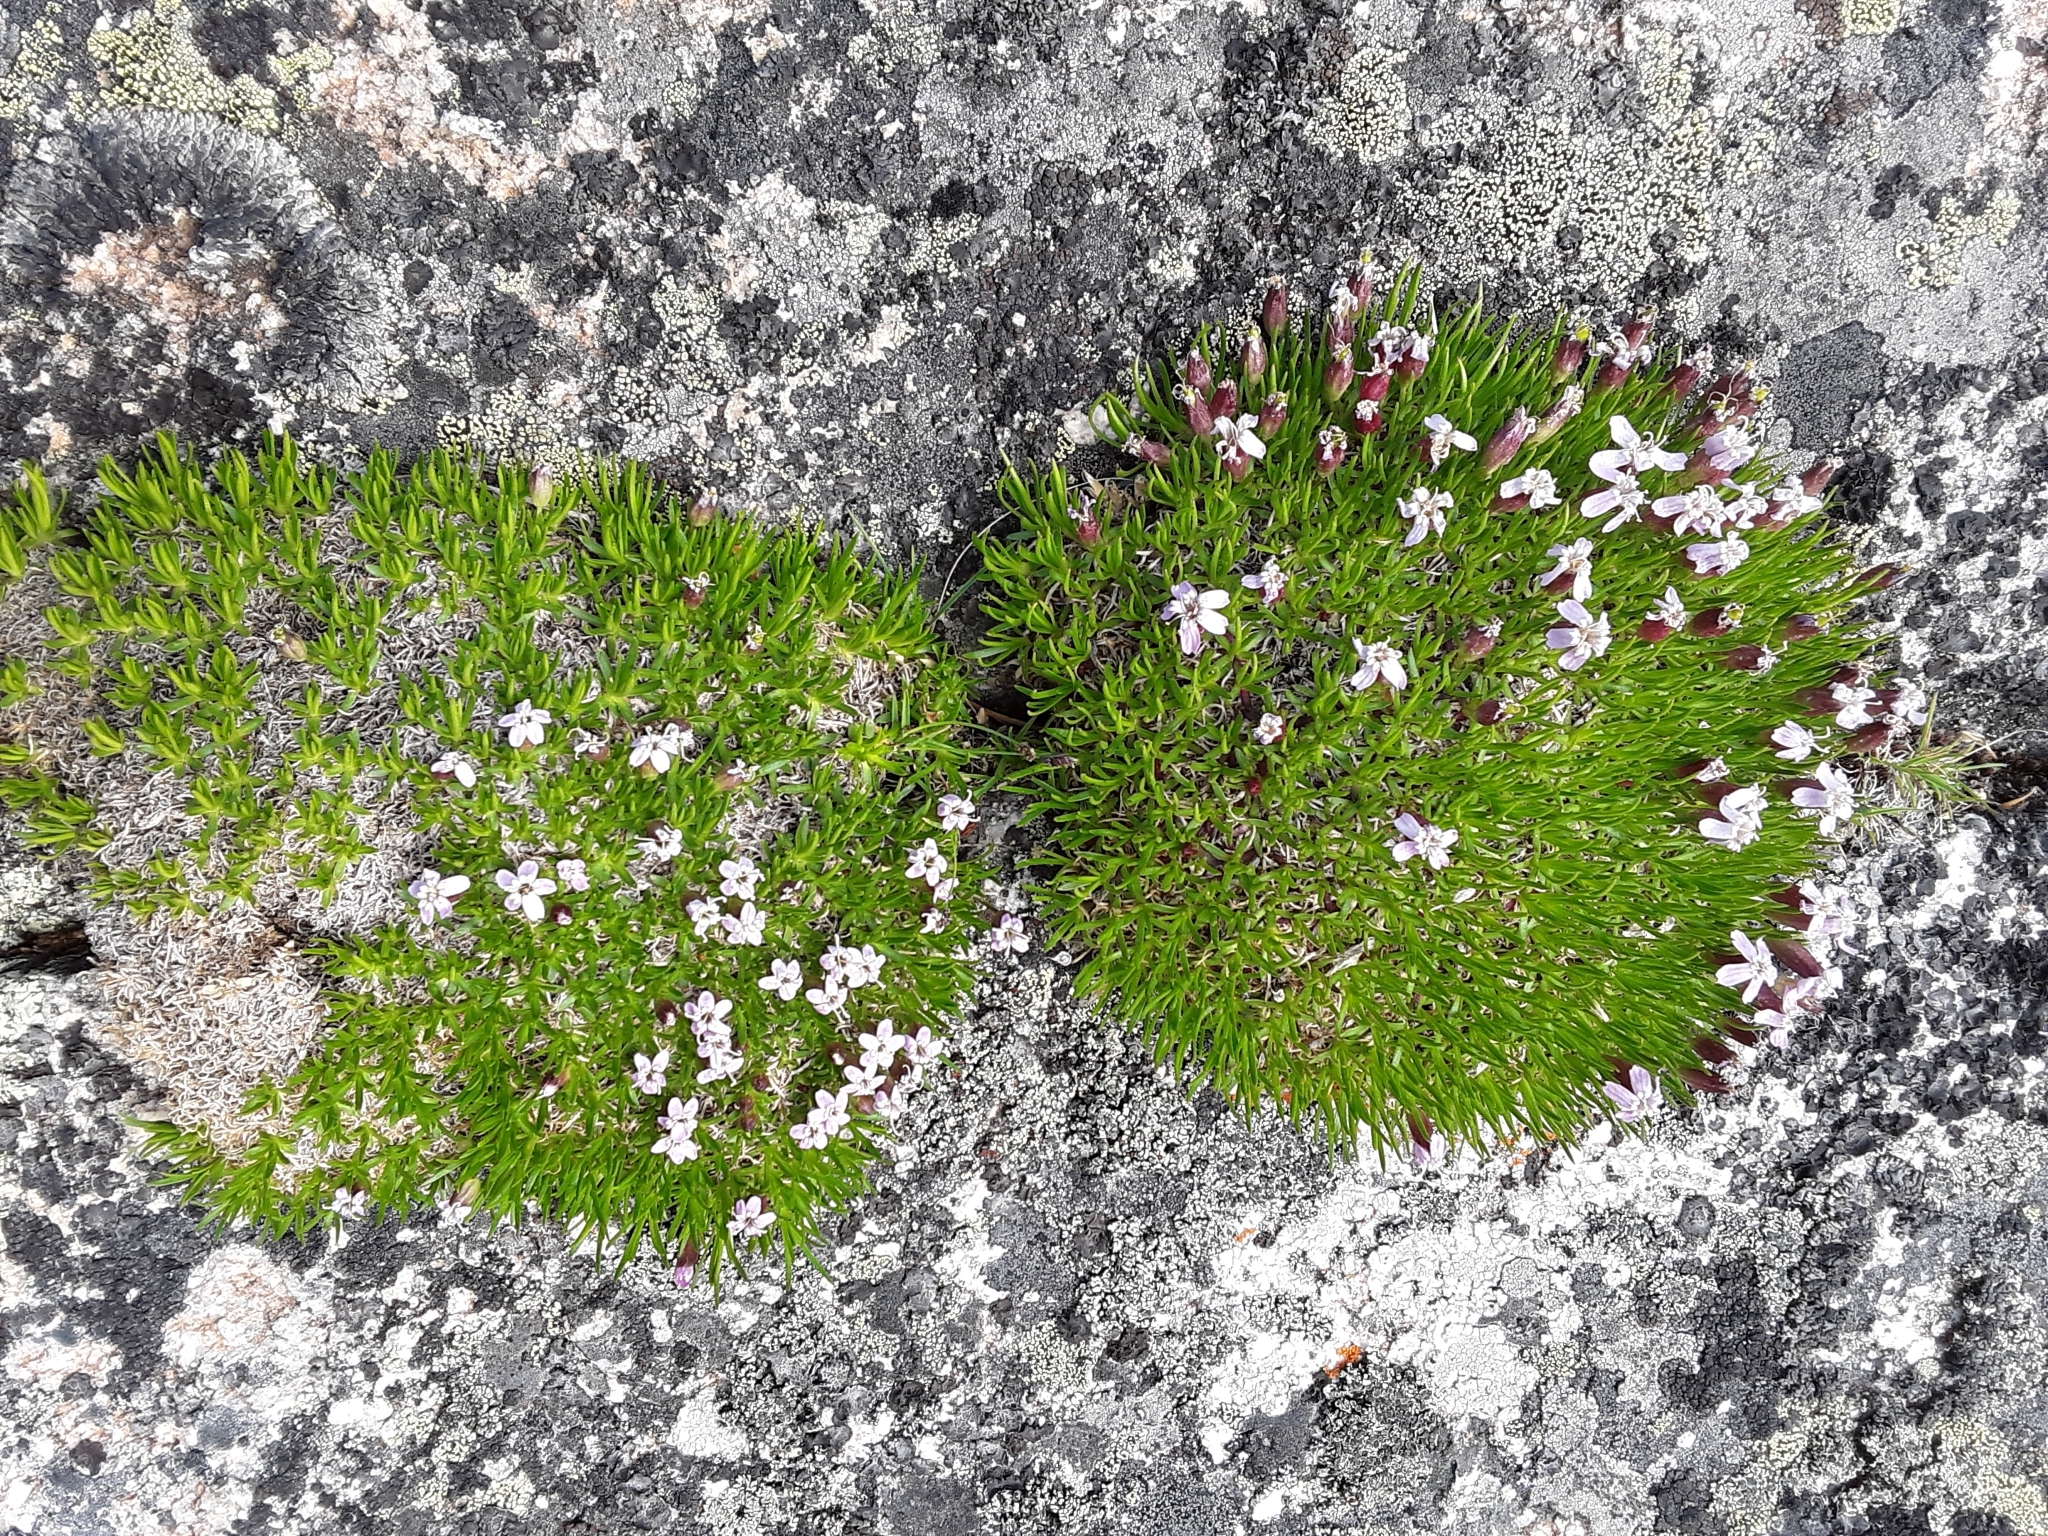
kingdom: Plantae
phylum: Tracheophyta
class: Magnoliopsida
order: Caryophyllales
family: Caryophyllaceae
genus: Silene
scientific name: Silene acaulis
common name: Moss campion
